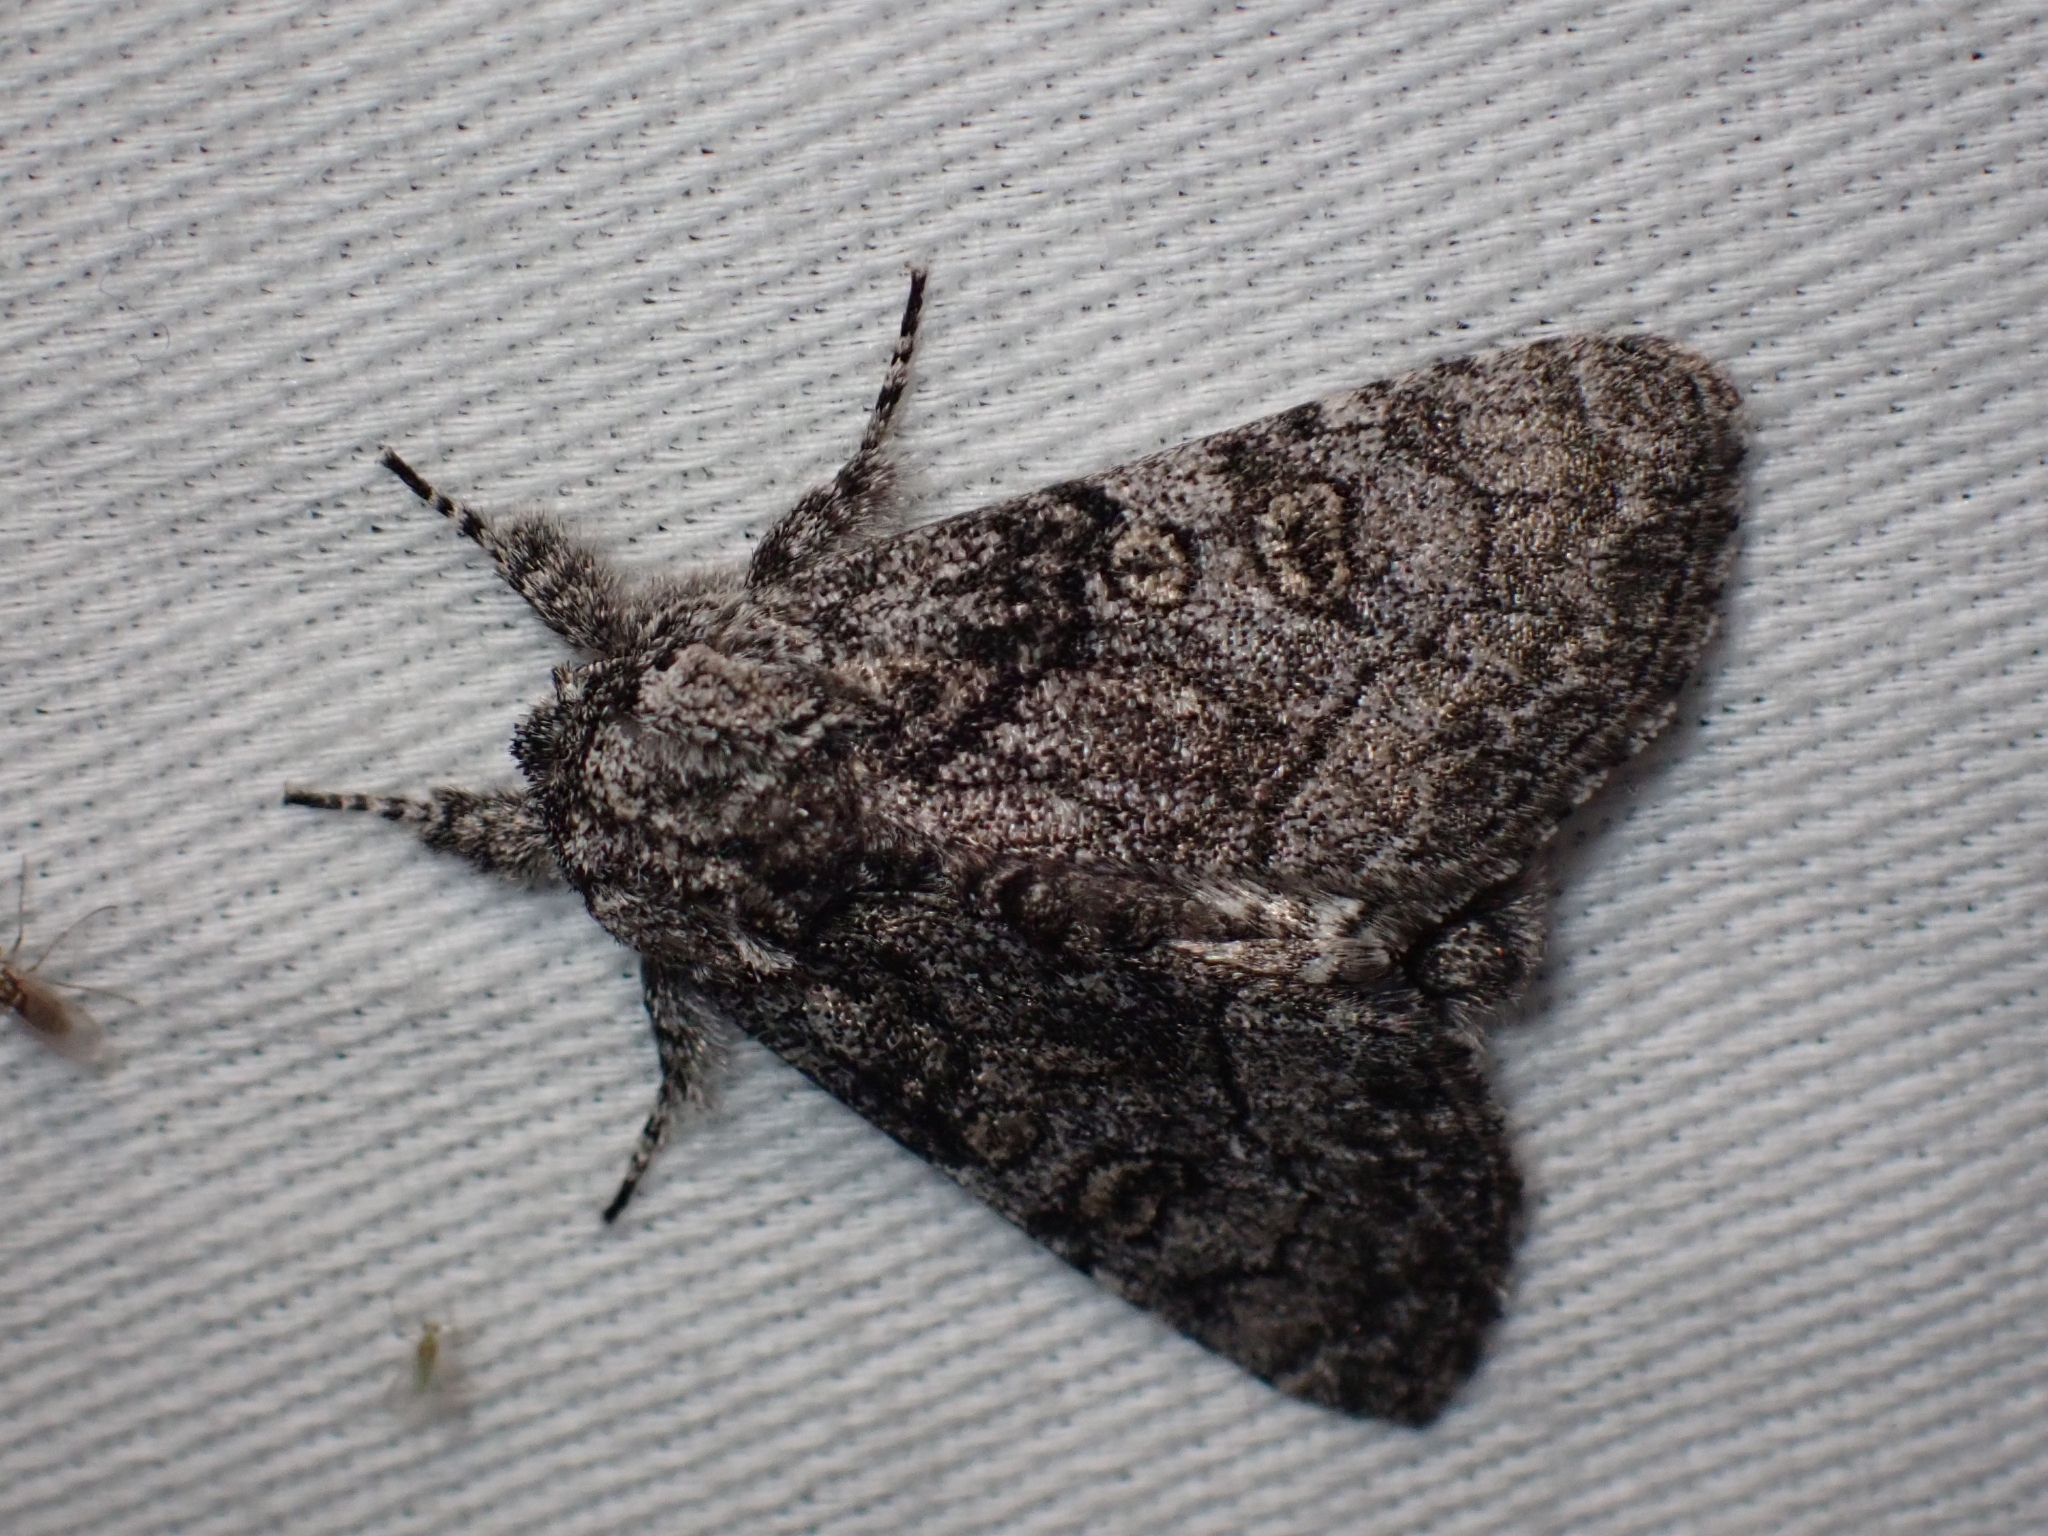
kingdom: Animalia
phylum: Arthropoda
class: Insecta
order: Lepidoptera
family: Noctuidae
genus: Raphia
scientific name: Raphia frater
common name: Brother
